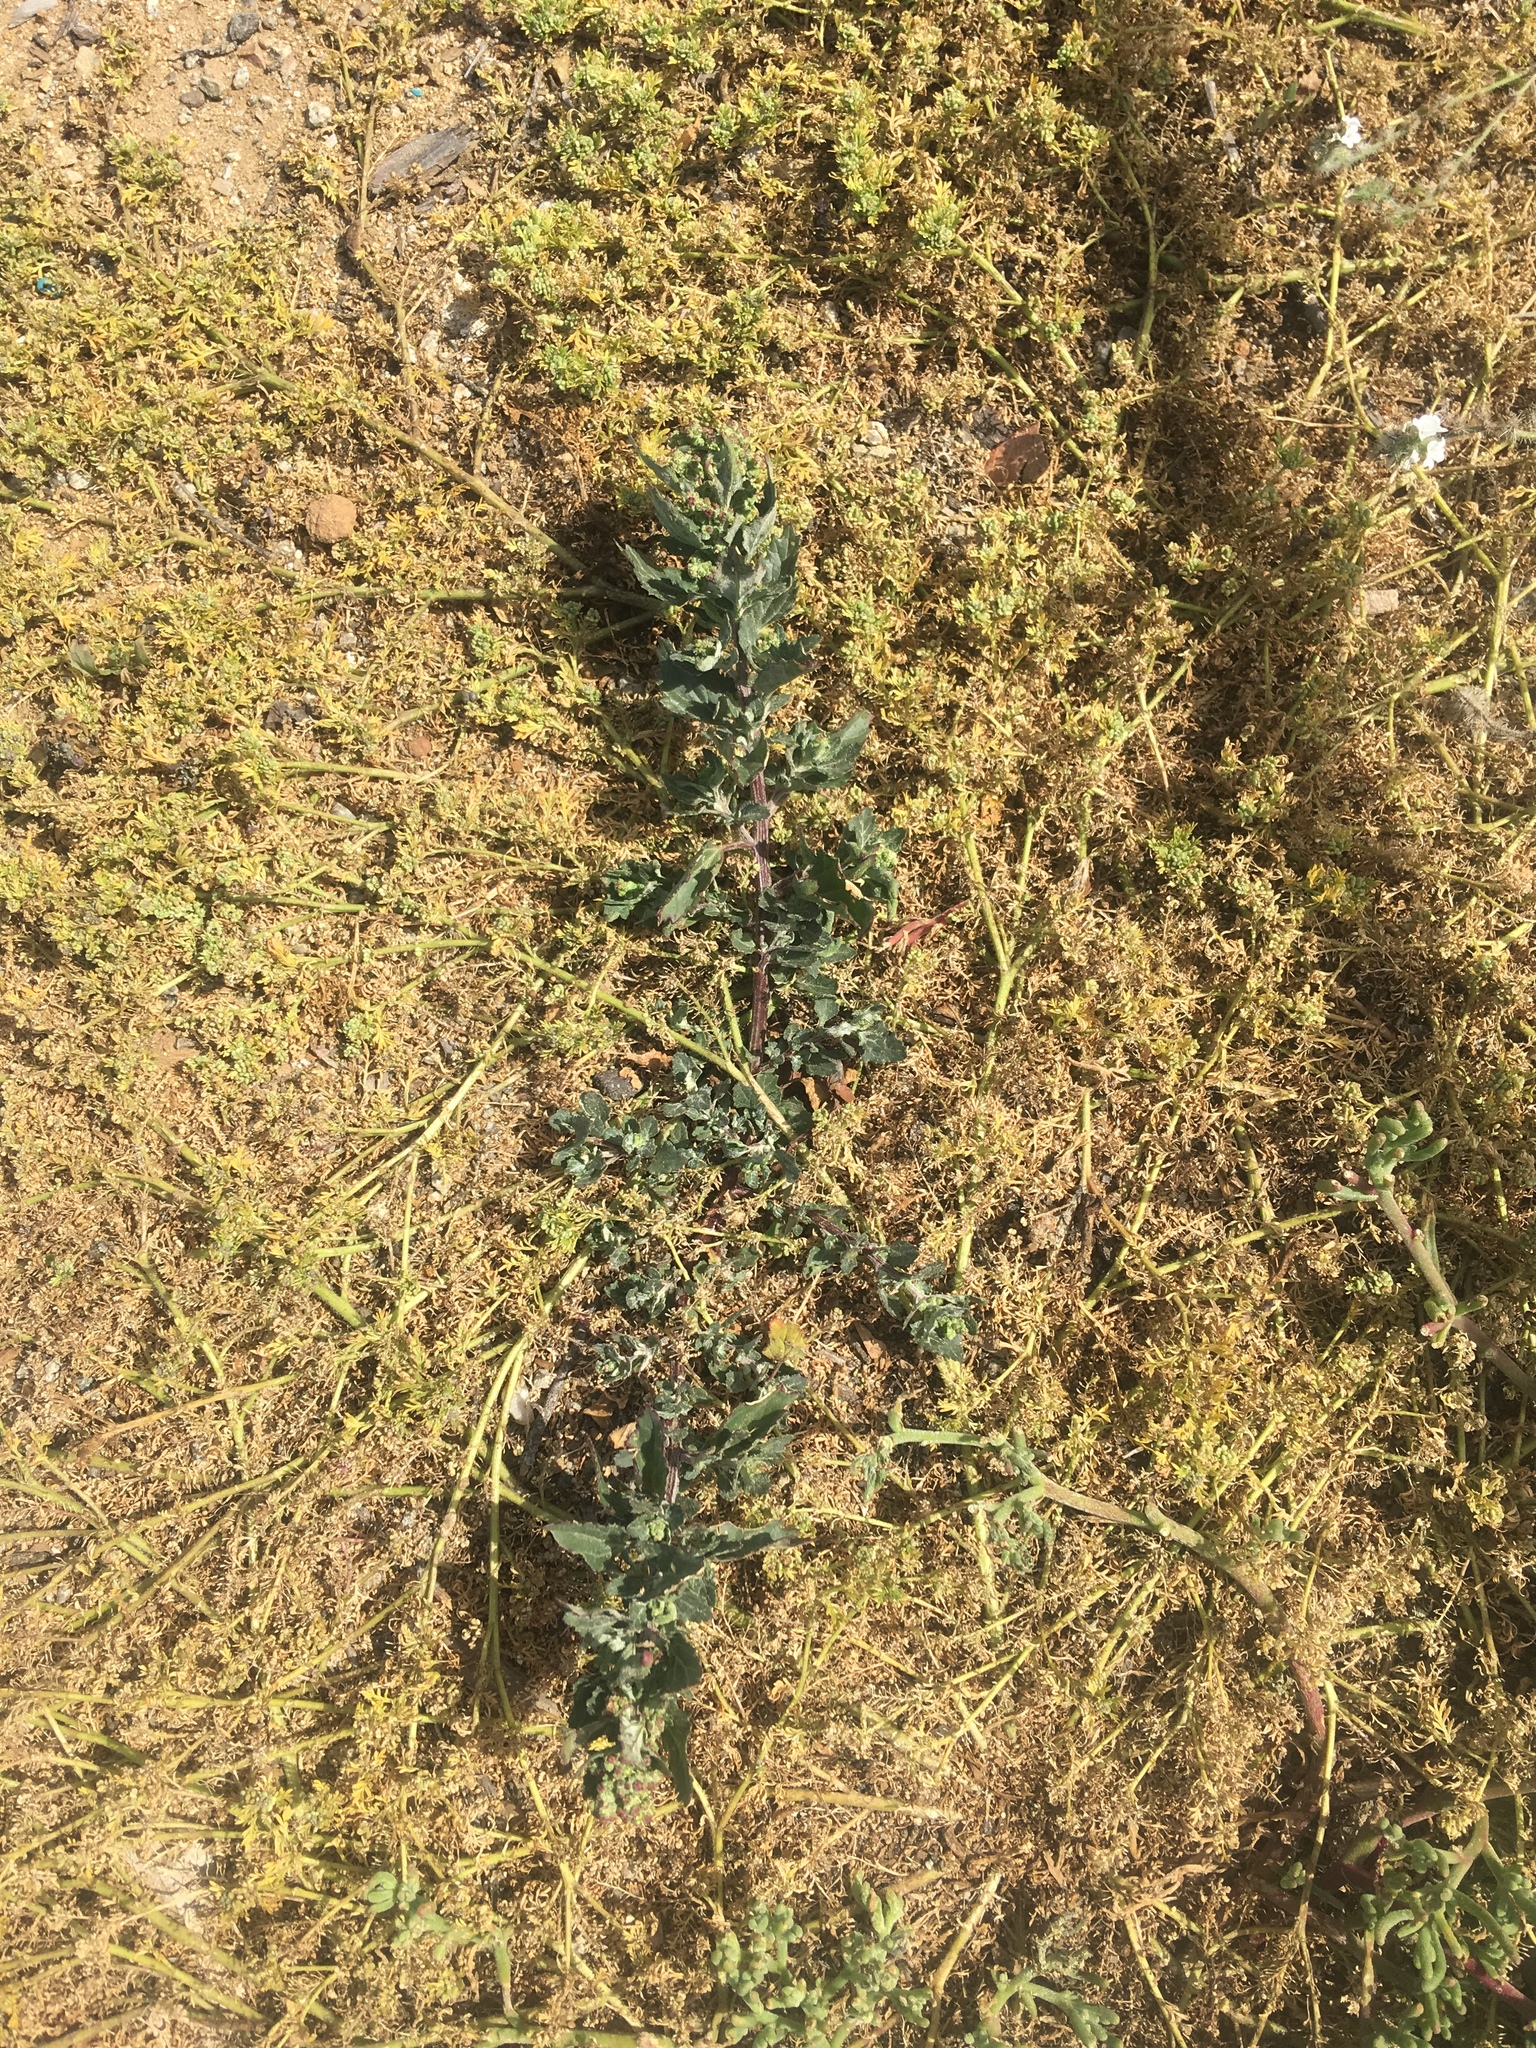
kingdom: Plantae
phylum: Tracheophyta
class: Magnoliopsida
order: Caryophyllales
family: Amaranthaceae
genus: Chenopodiastrum
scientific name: Chenopodiastrum murale
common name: Sowbane
